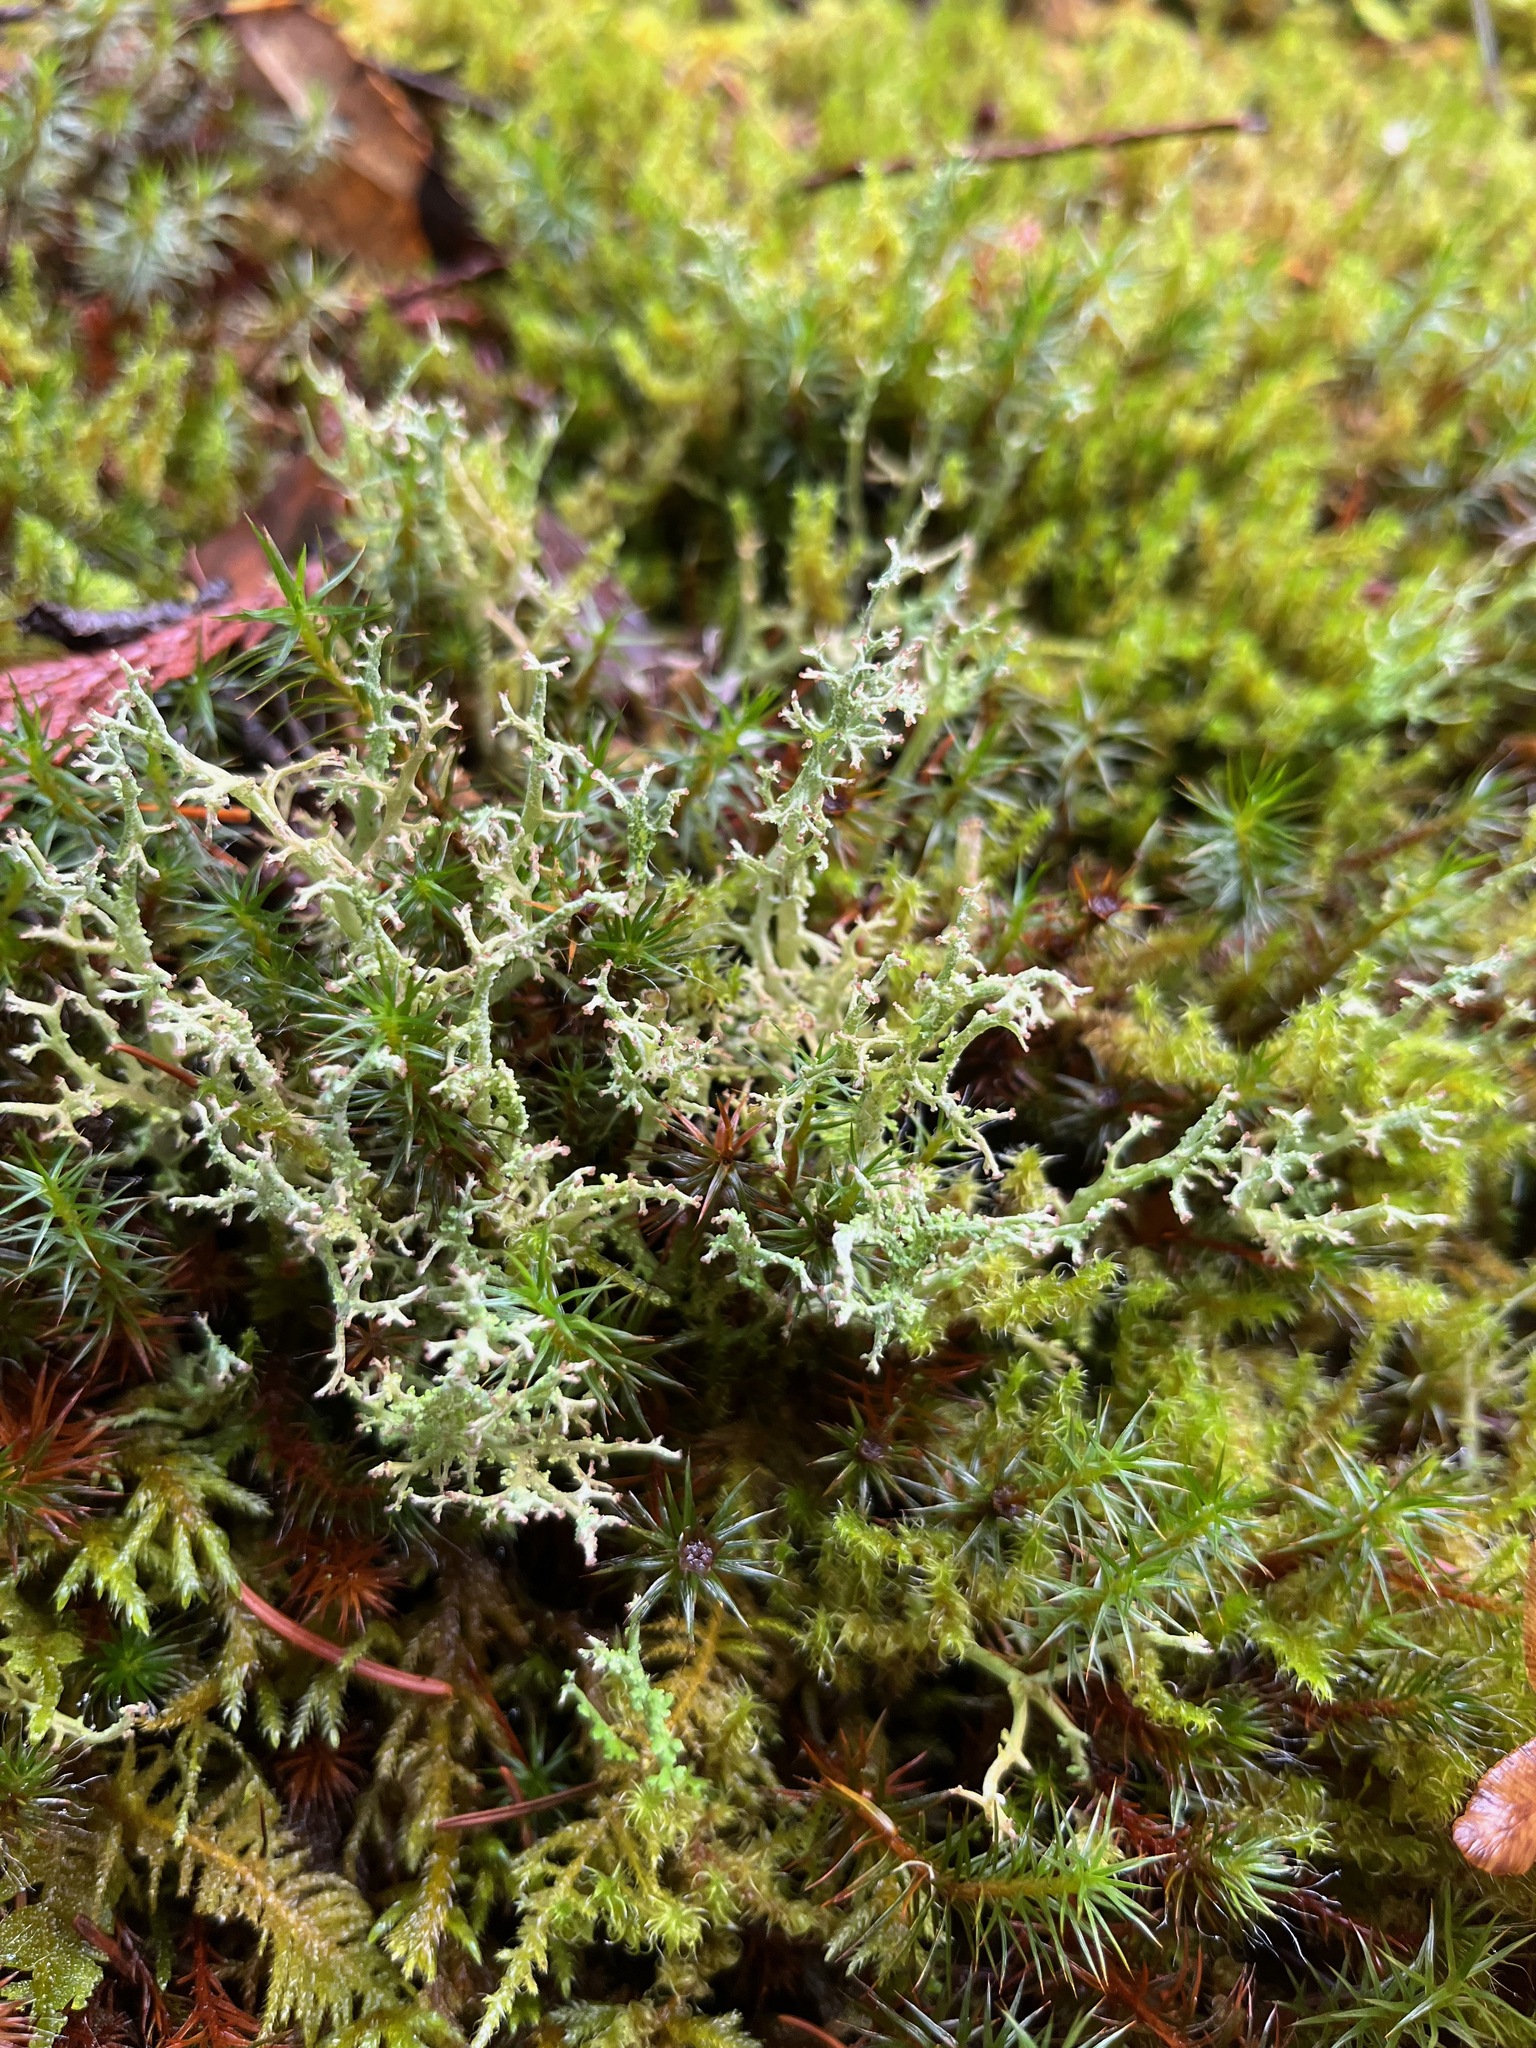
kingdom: Fungi
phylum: Ascomycota
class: Lecanoromycetes
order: Lecanorales
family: Cladoniaceae
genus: Cladonia
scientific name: Cladonia furcata
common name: Many-forked cladonia
